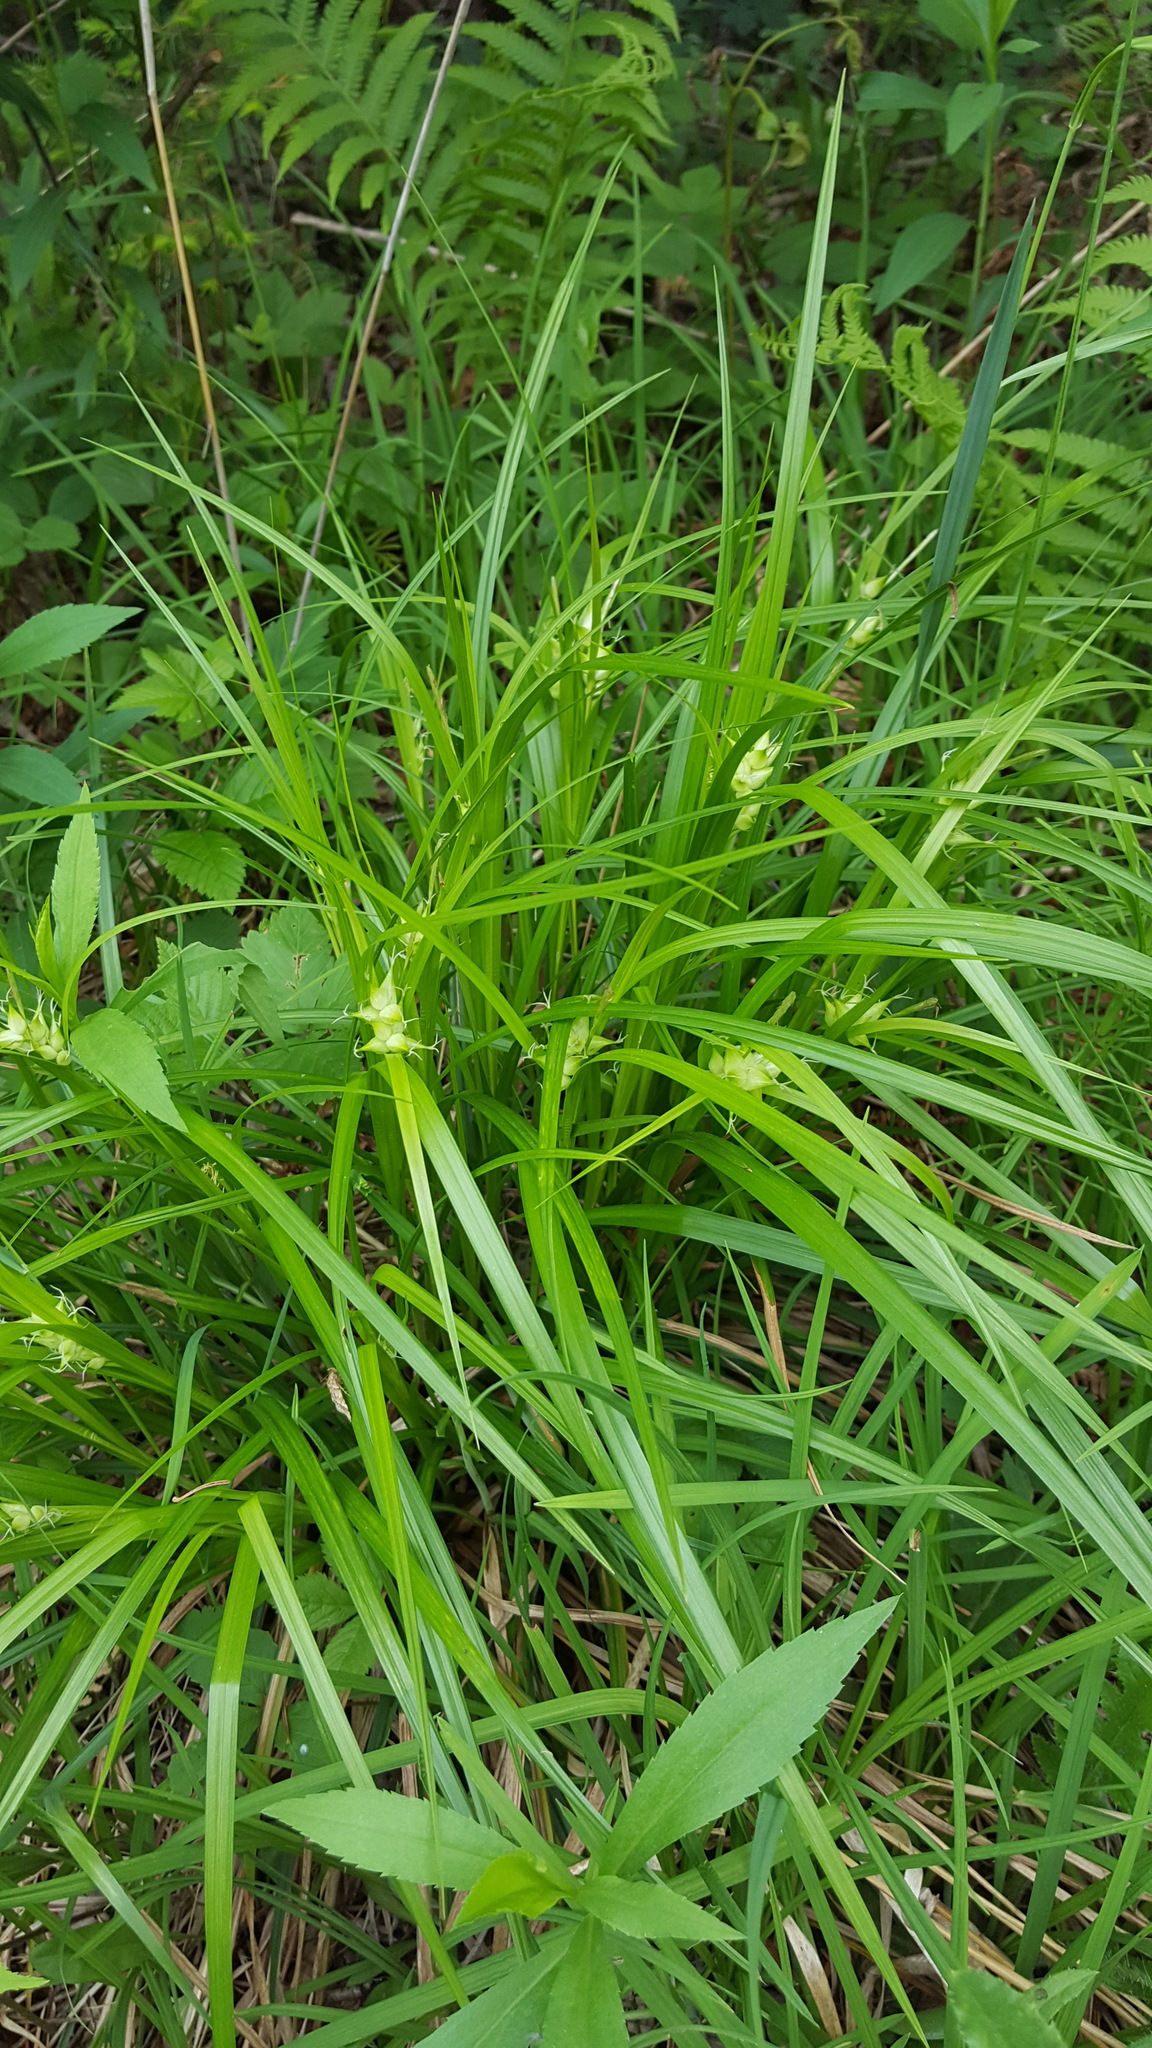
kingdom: Plantae
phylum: Tracheophyta
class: Liliopsida
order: Poales
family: Cyperaceae
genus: Carex
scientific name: Carex intumescens
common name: Greater bladder sedge
